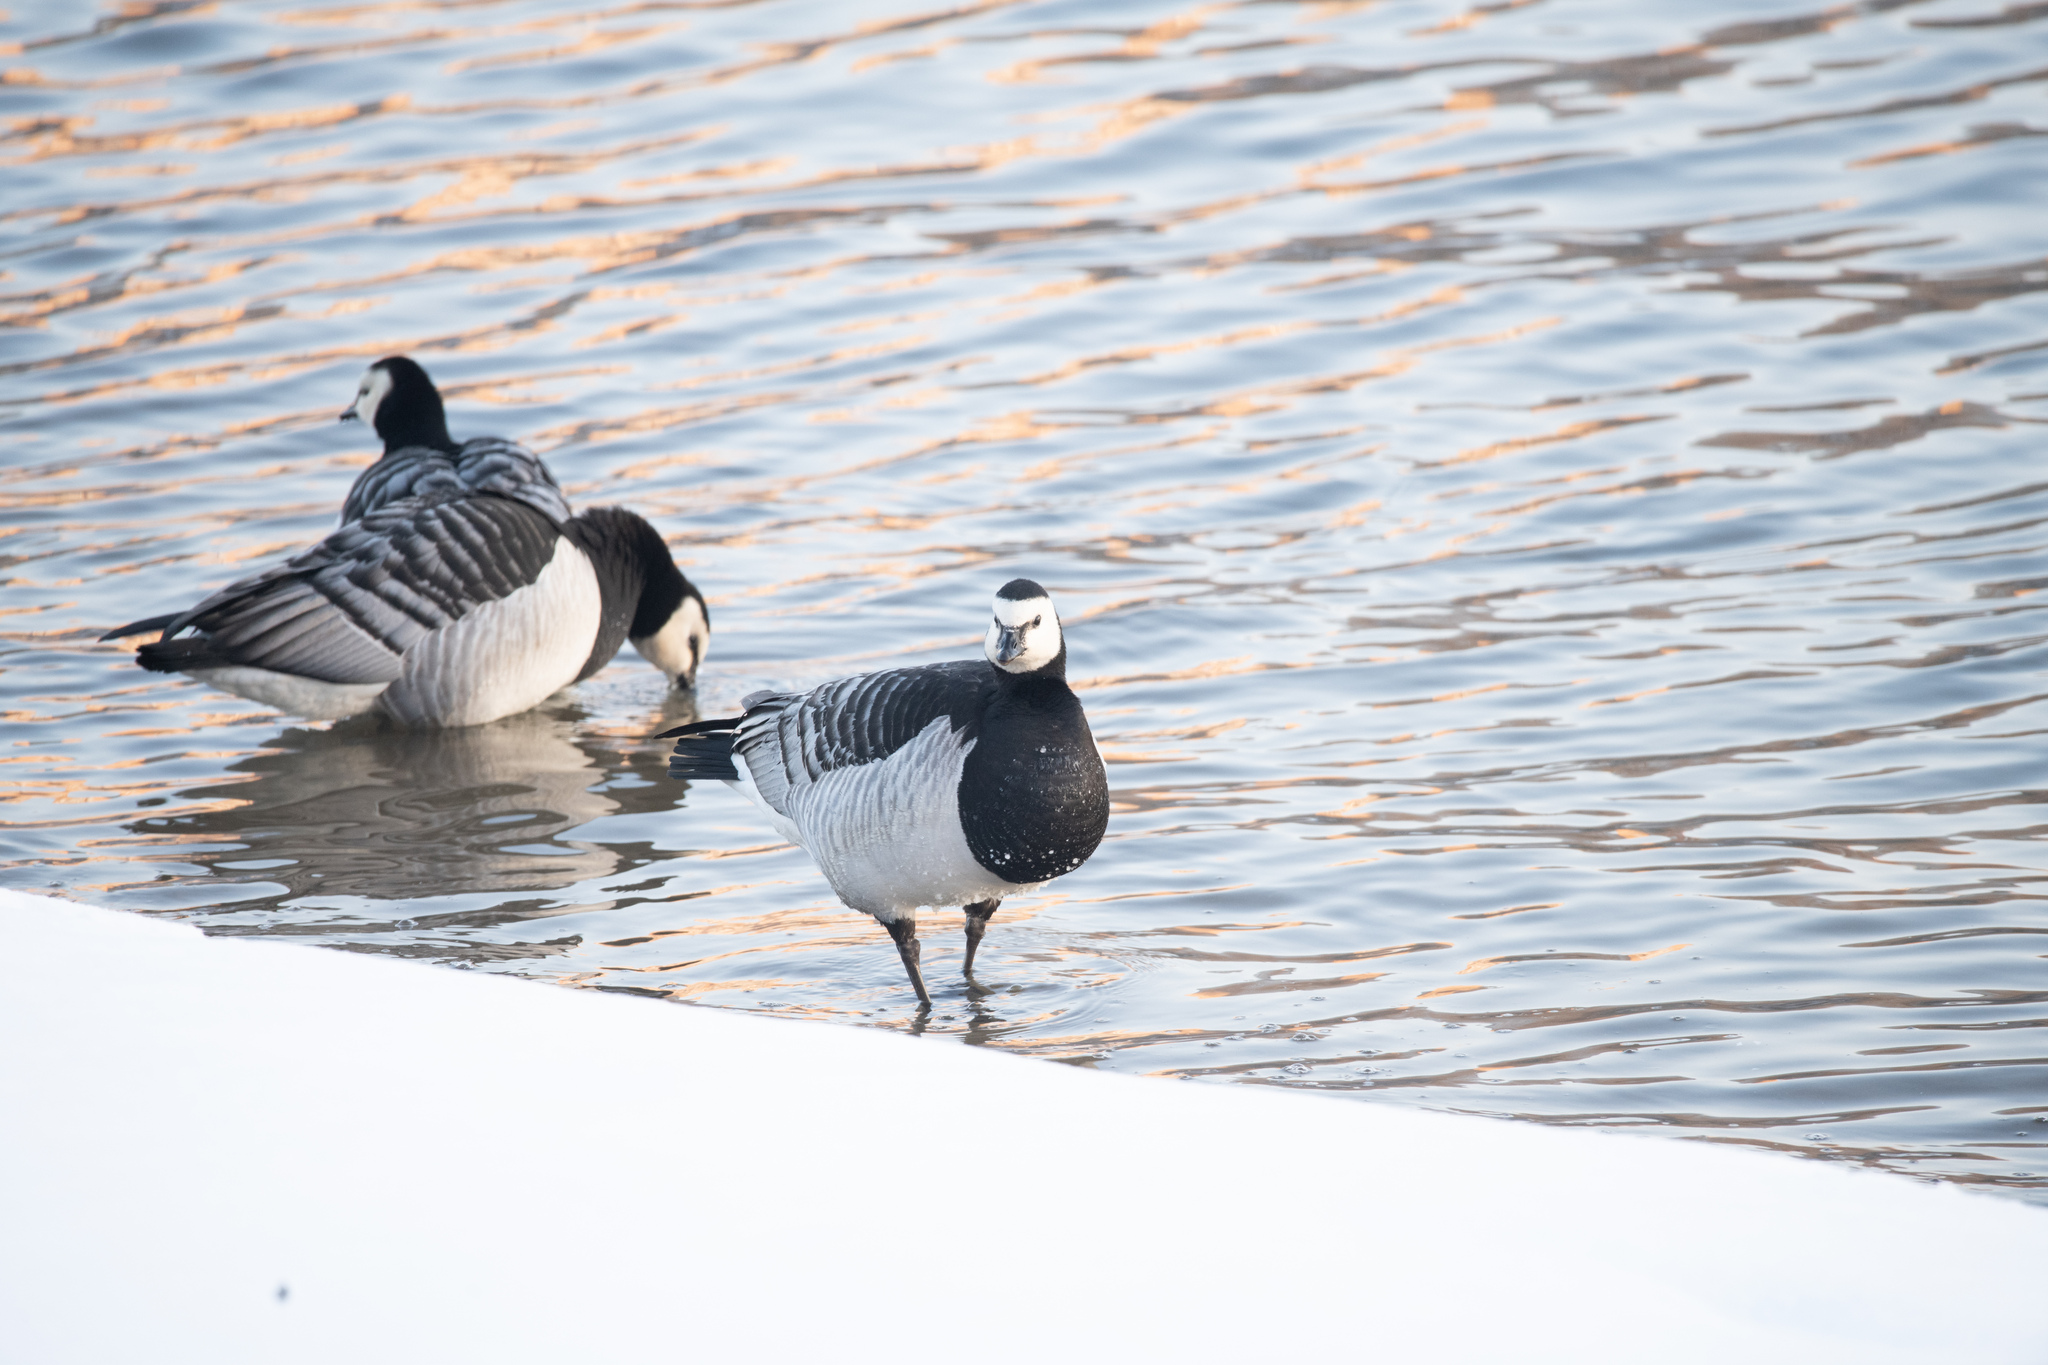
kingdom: Animalia
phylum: Chordata
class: Aves
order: Anseriformes
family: Anatidae
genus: Branta
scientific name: Branta leucopsis
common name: Barnacle goose
